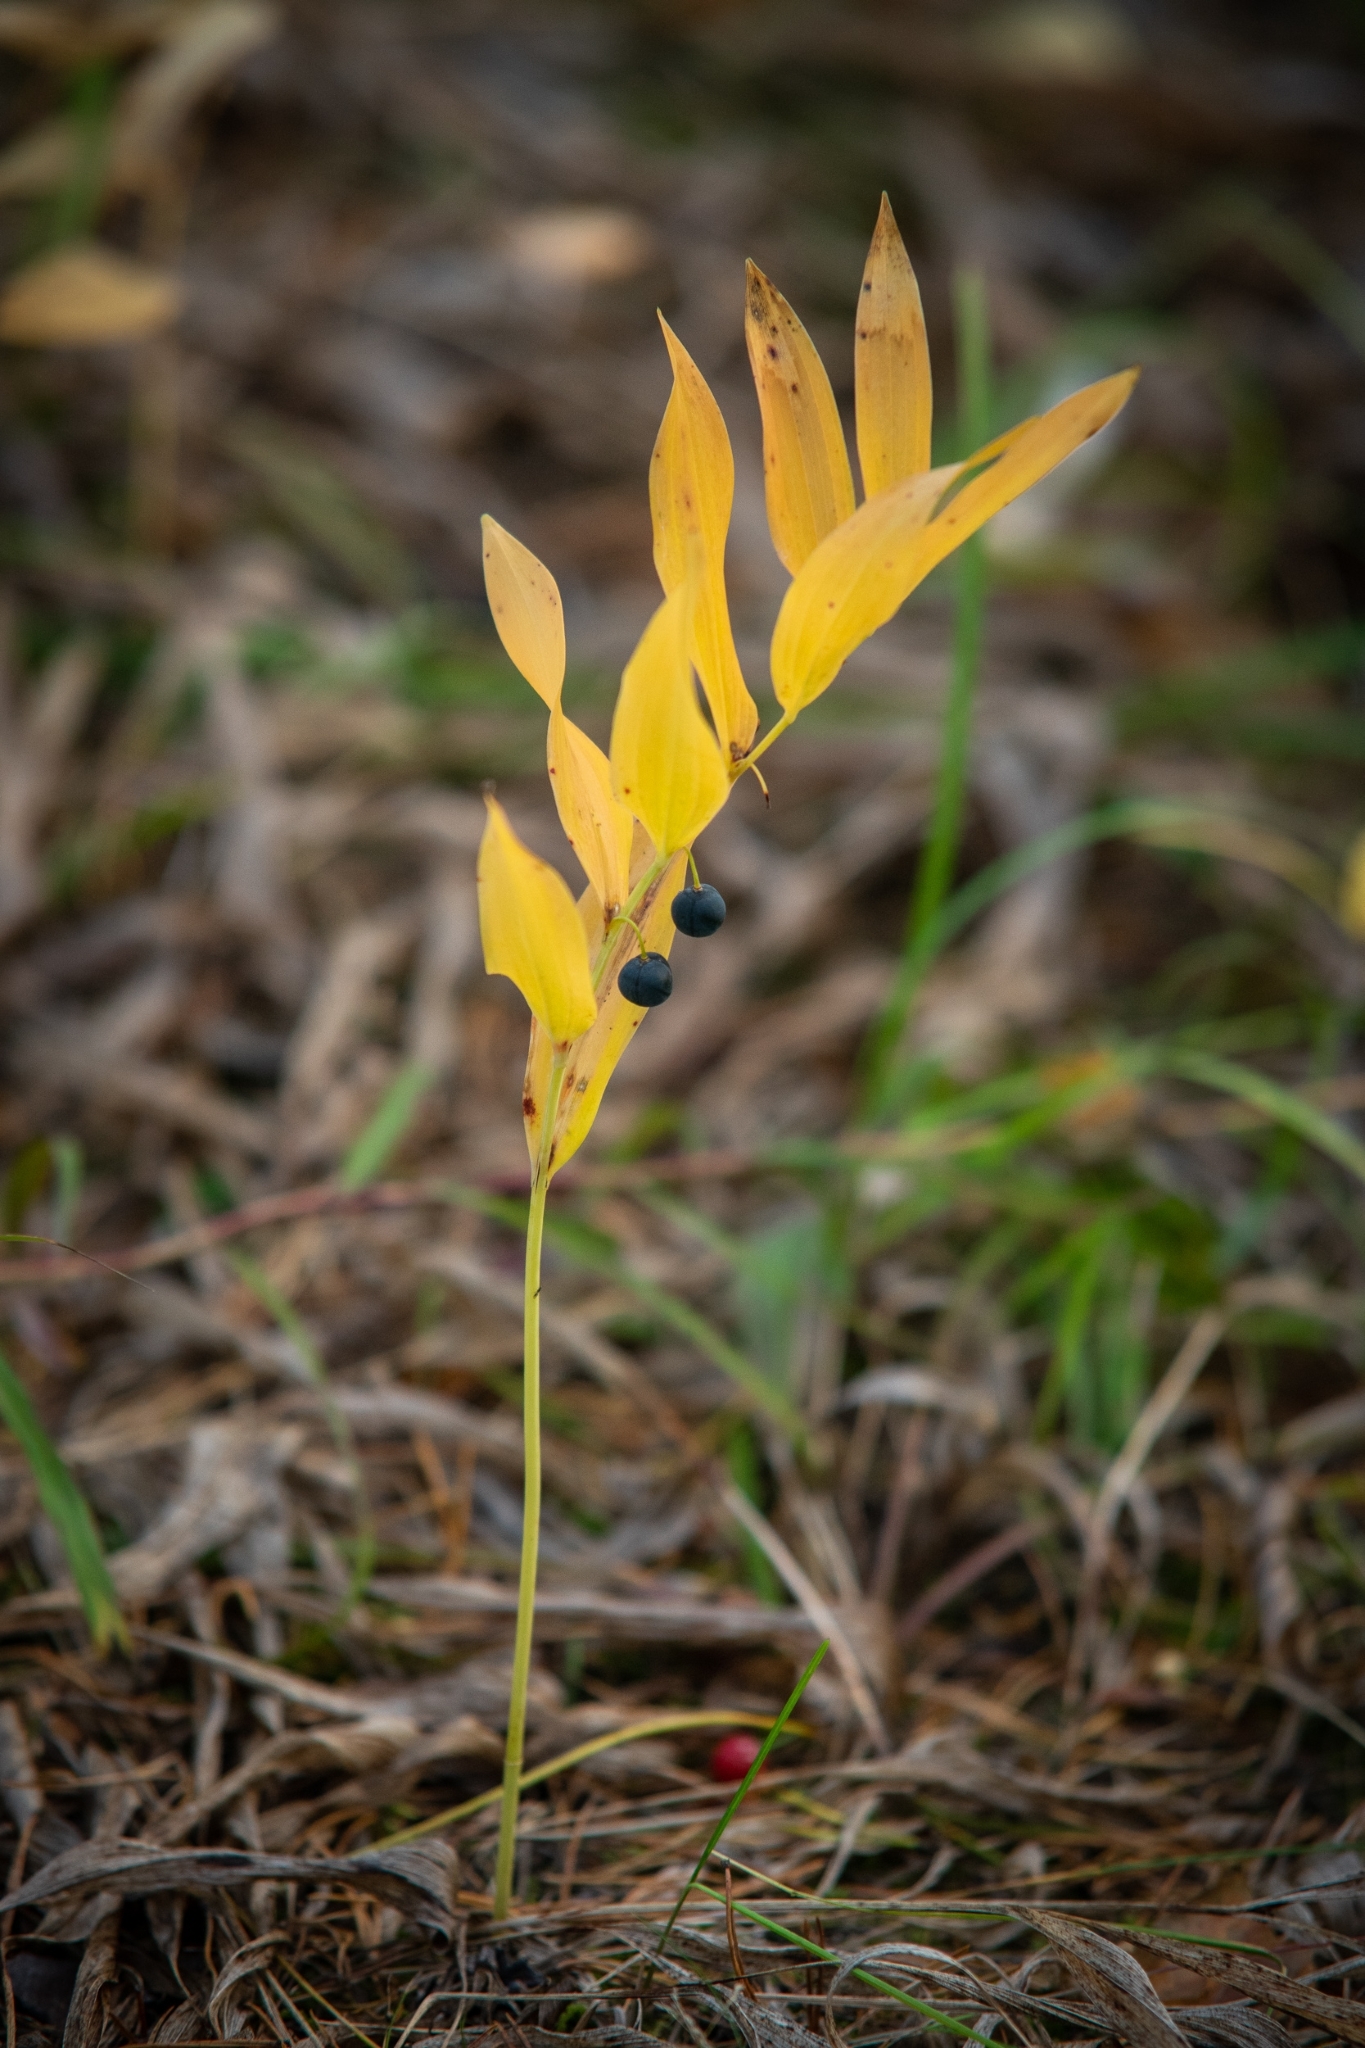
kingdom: Plantae
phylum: Tracheophyta
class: Liliopsida
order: Asparagales
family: Asparagaceae
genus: Polygonatum
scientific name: Polygonatum odoratum
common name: Angular solomon's-seal
